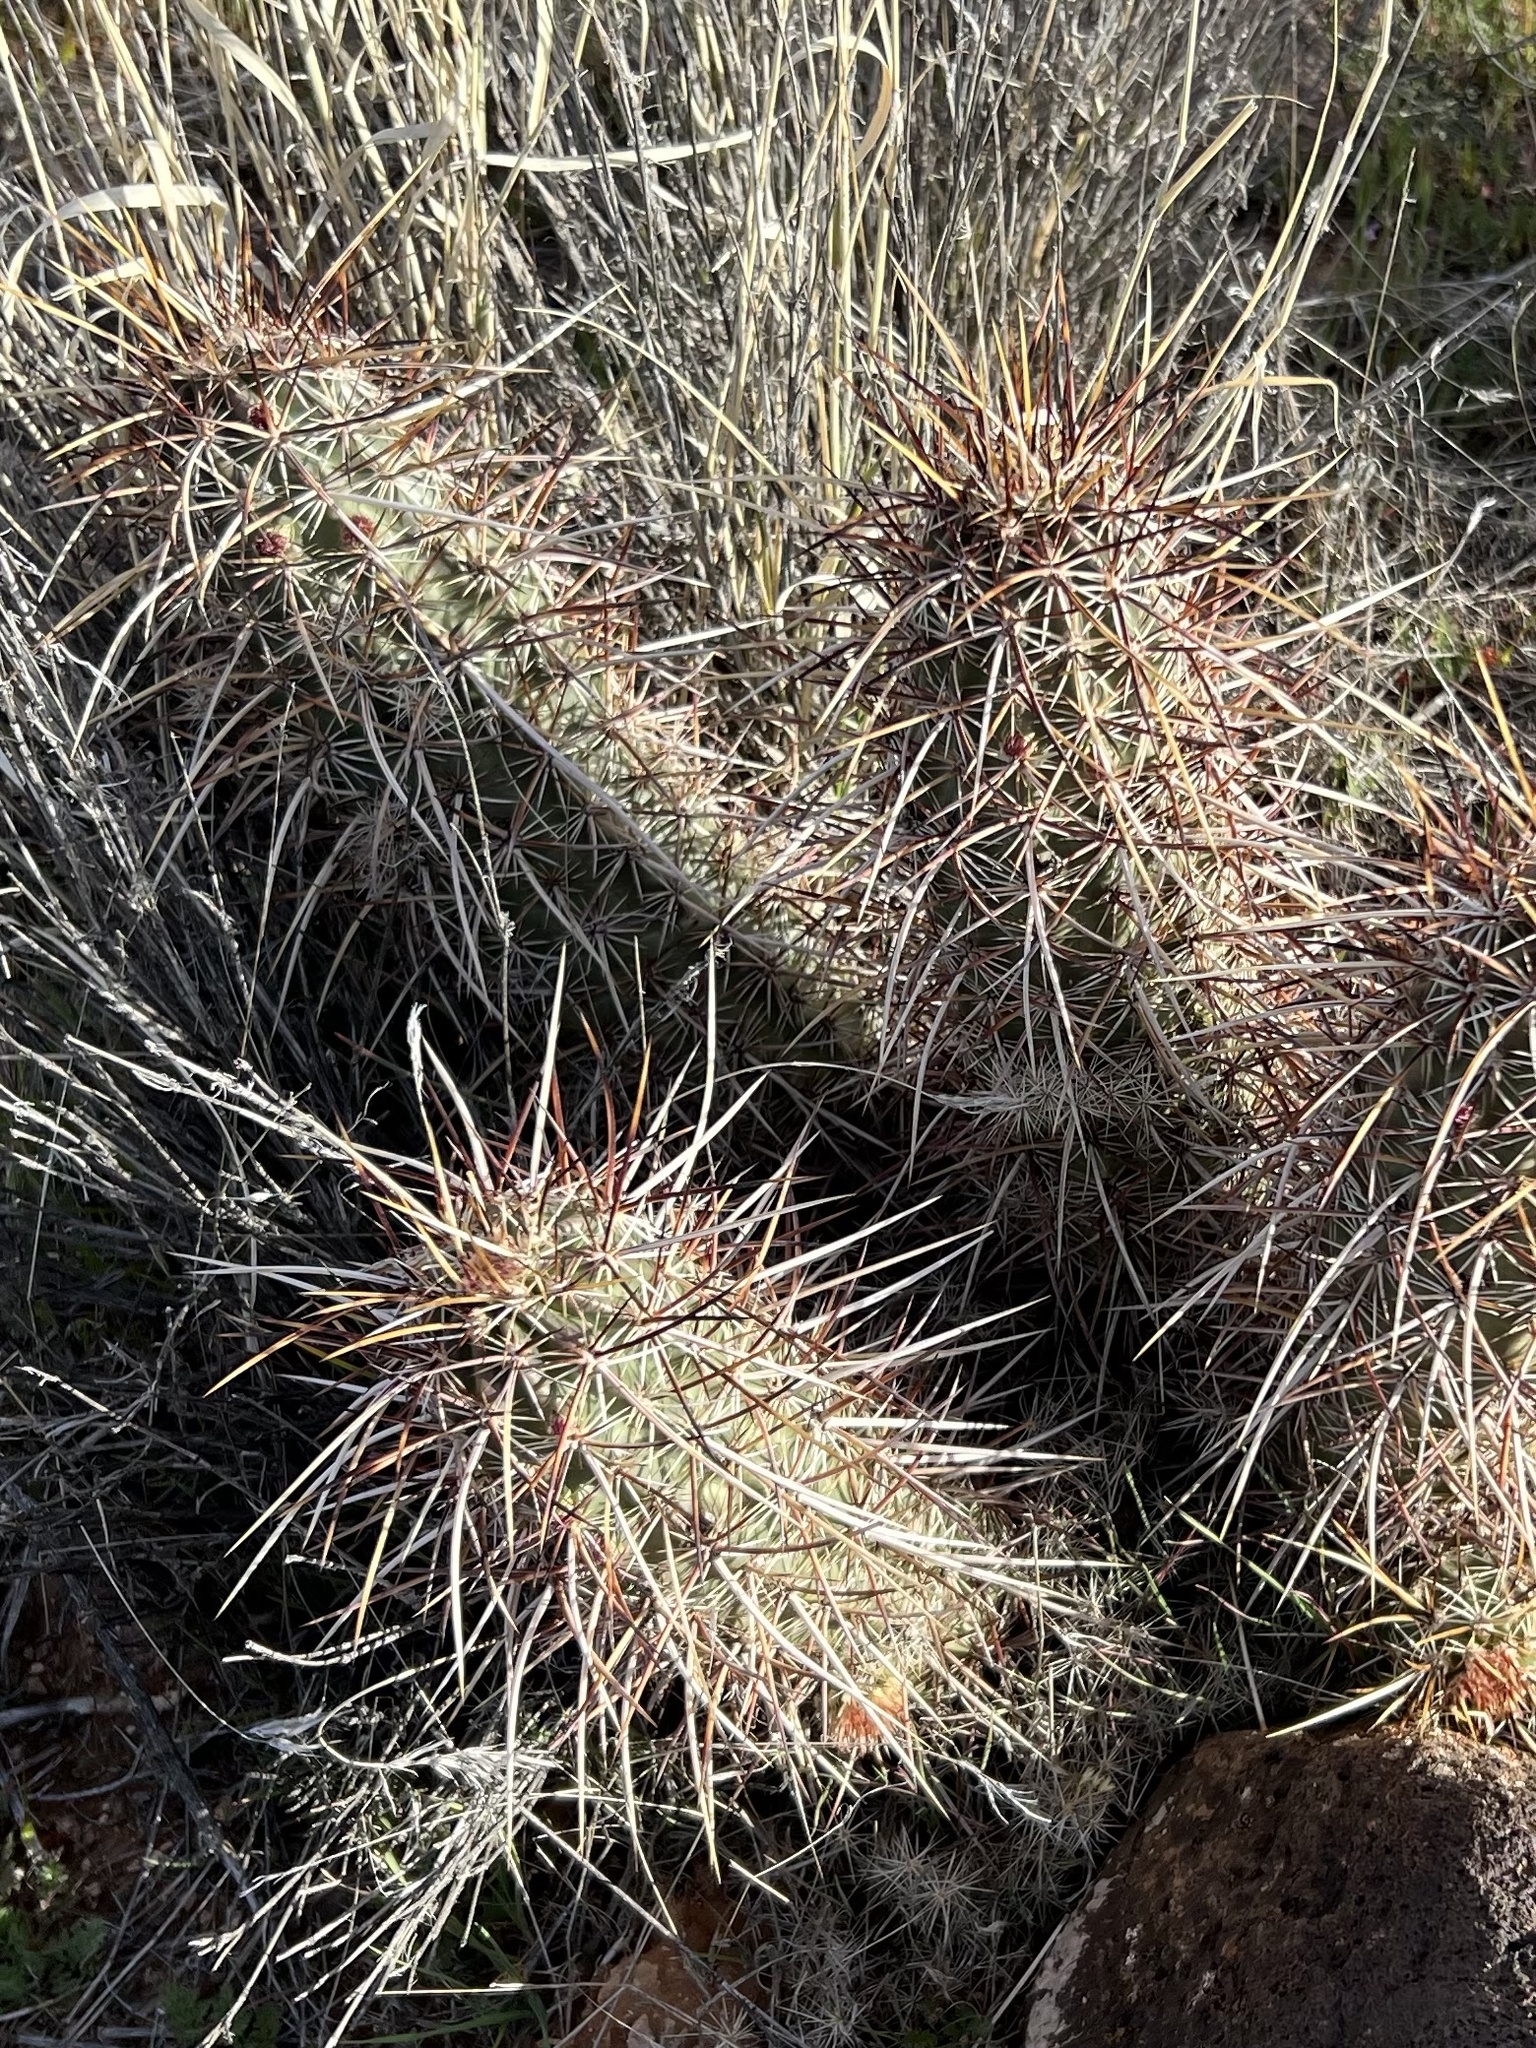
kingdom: Plantae
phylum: Tracheophyta
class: Magnoliopsida
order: Caryophyllales
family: Cactaceae
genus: Echinocereus
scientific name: Echinocereus relictus
